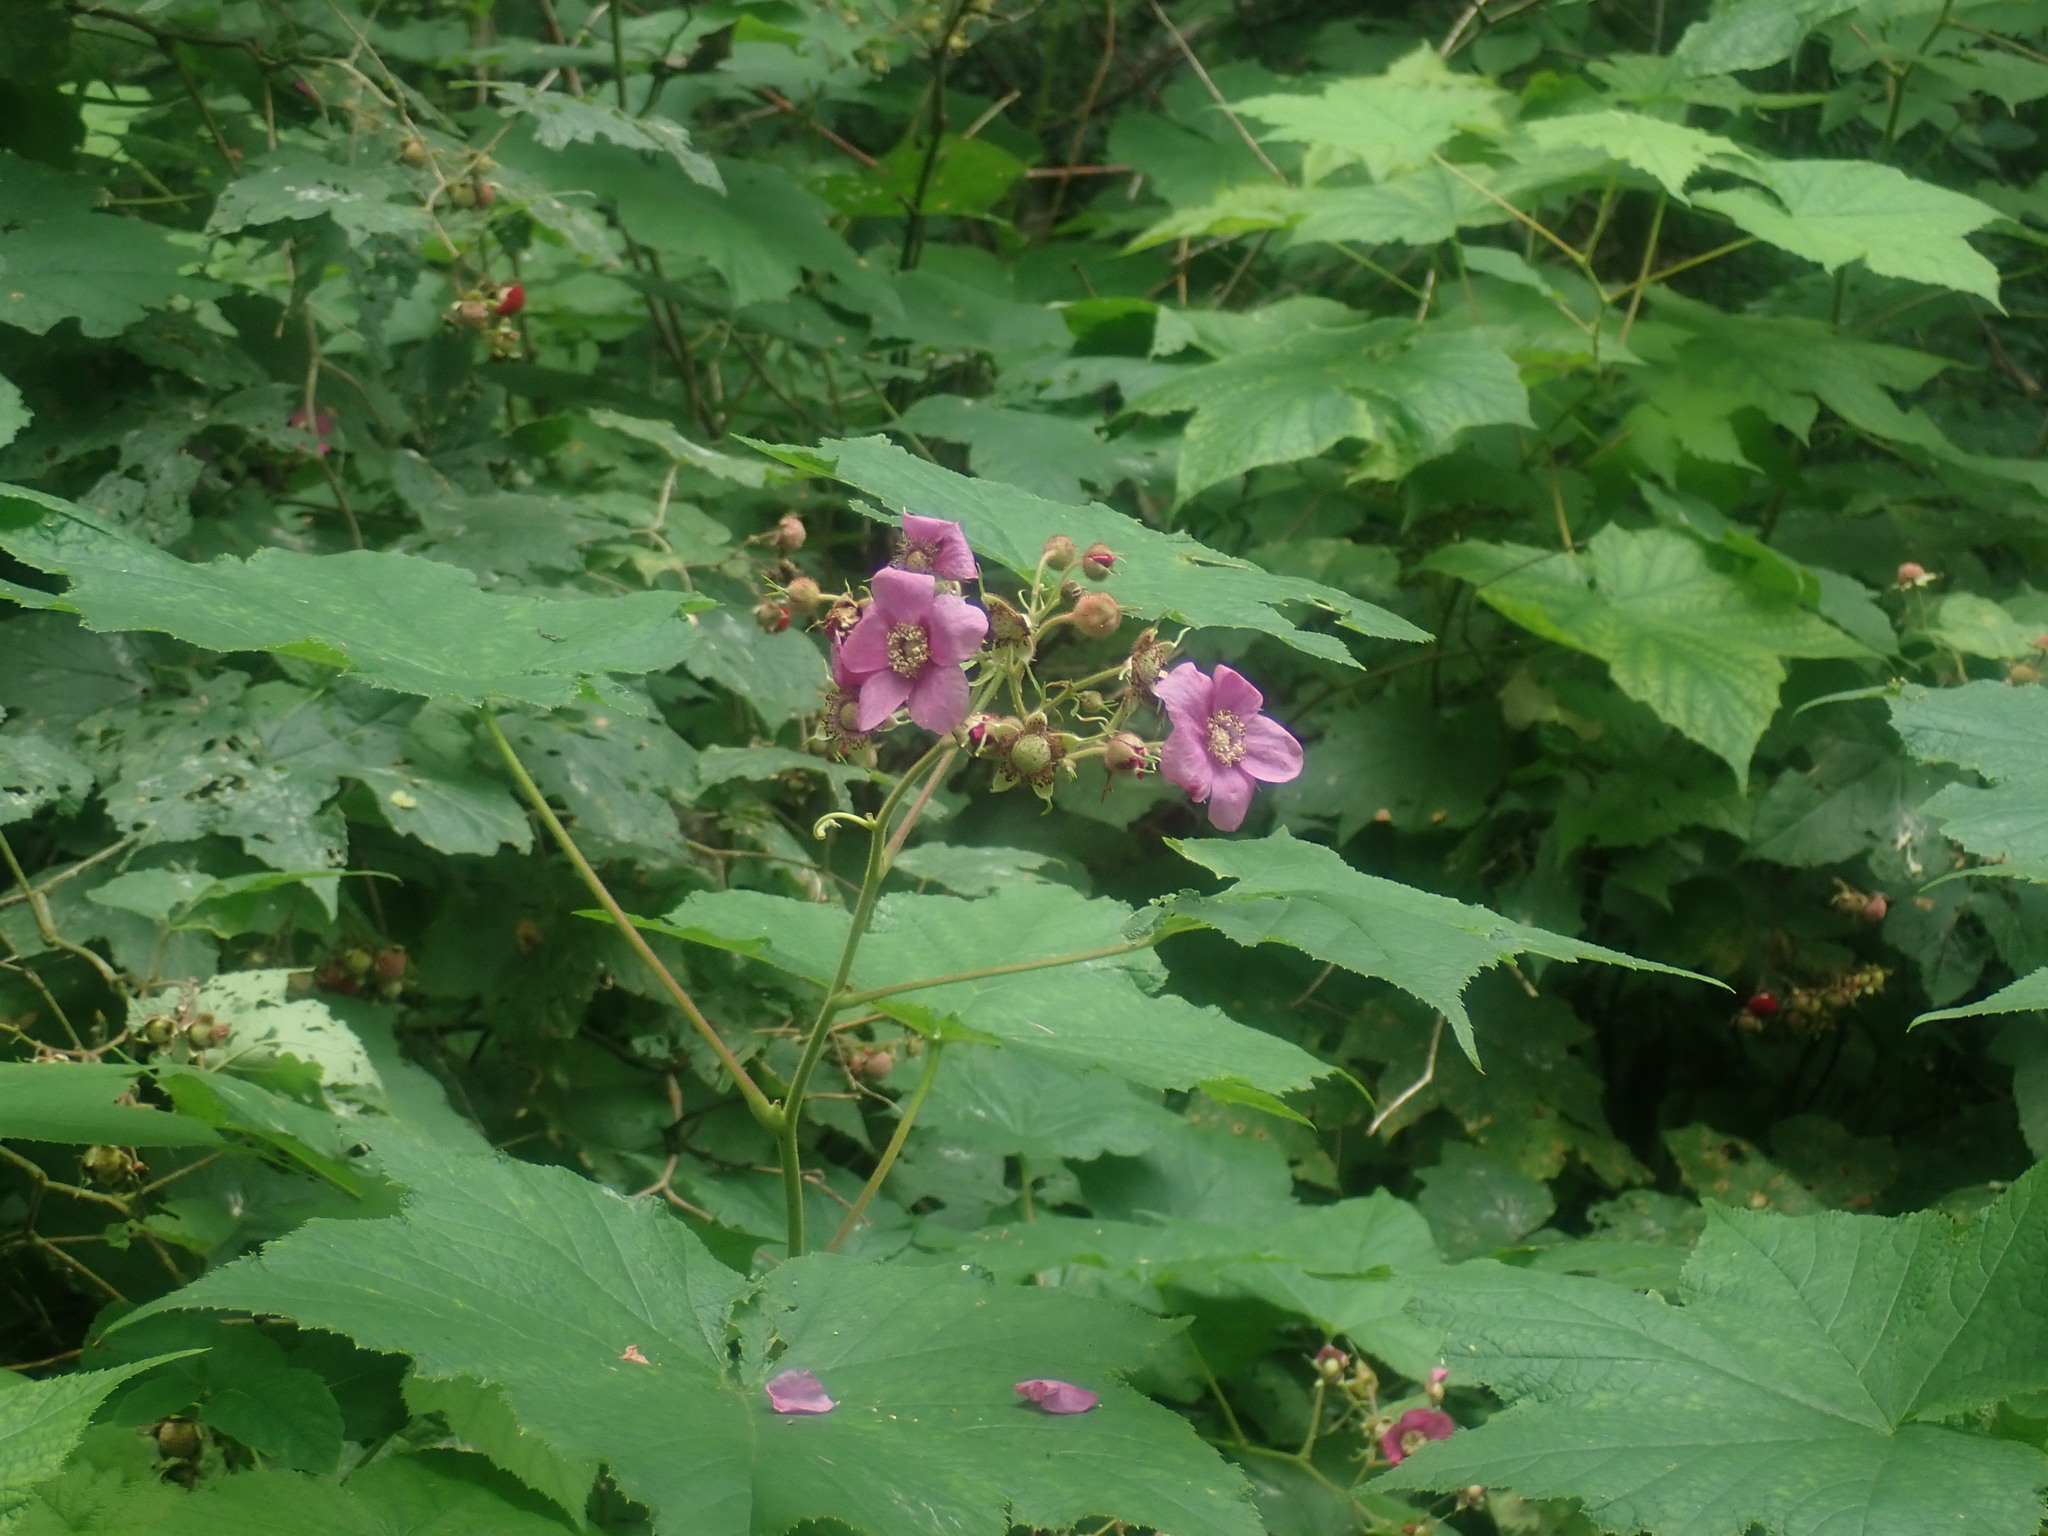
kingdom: Plantae
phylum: Tracheophyta
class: Magnoliopsida
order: Rosales
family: Rosaceae
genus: Rubus
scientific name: Rubus odoratus
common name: Purple-flowered raspberry
